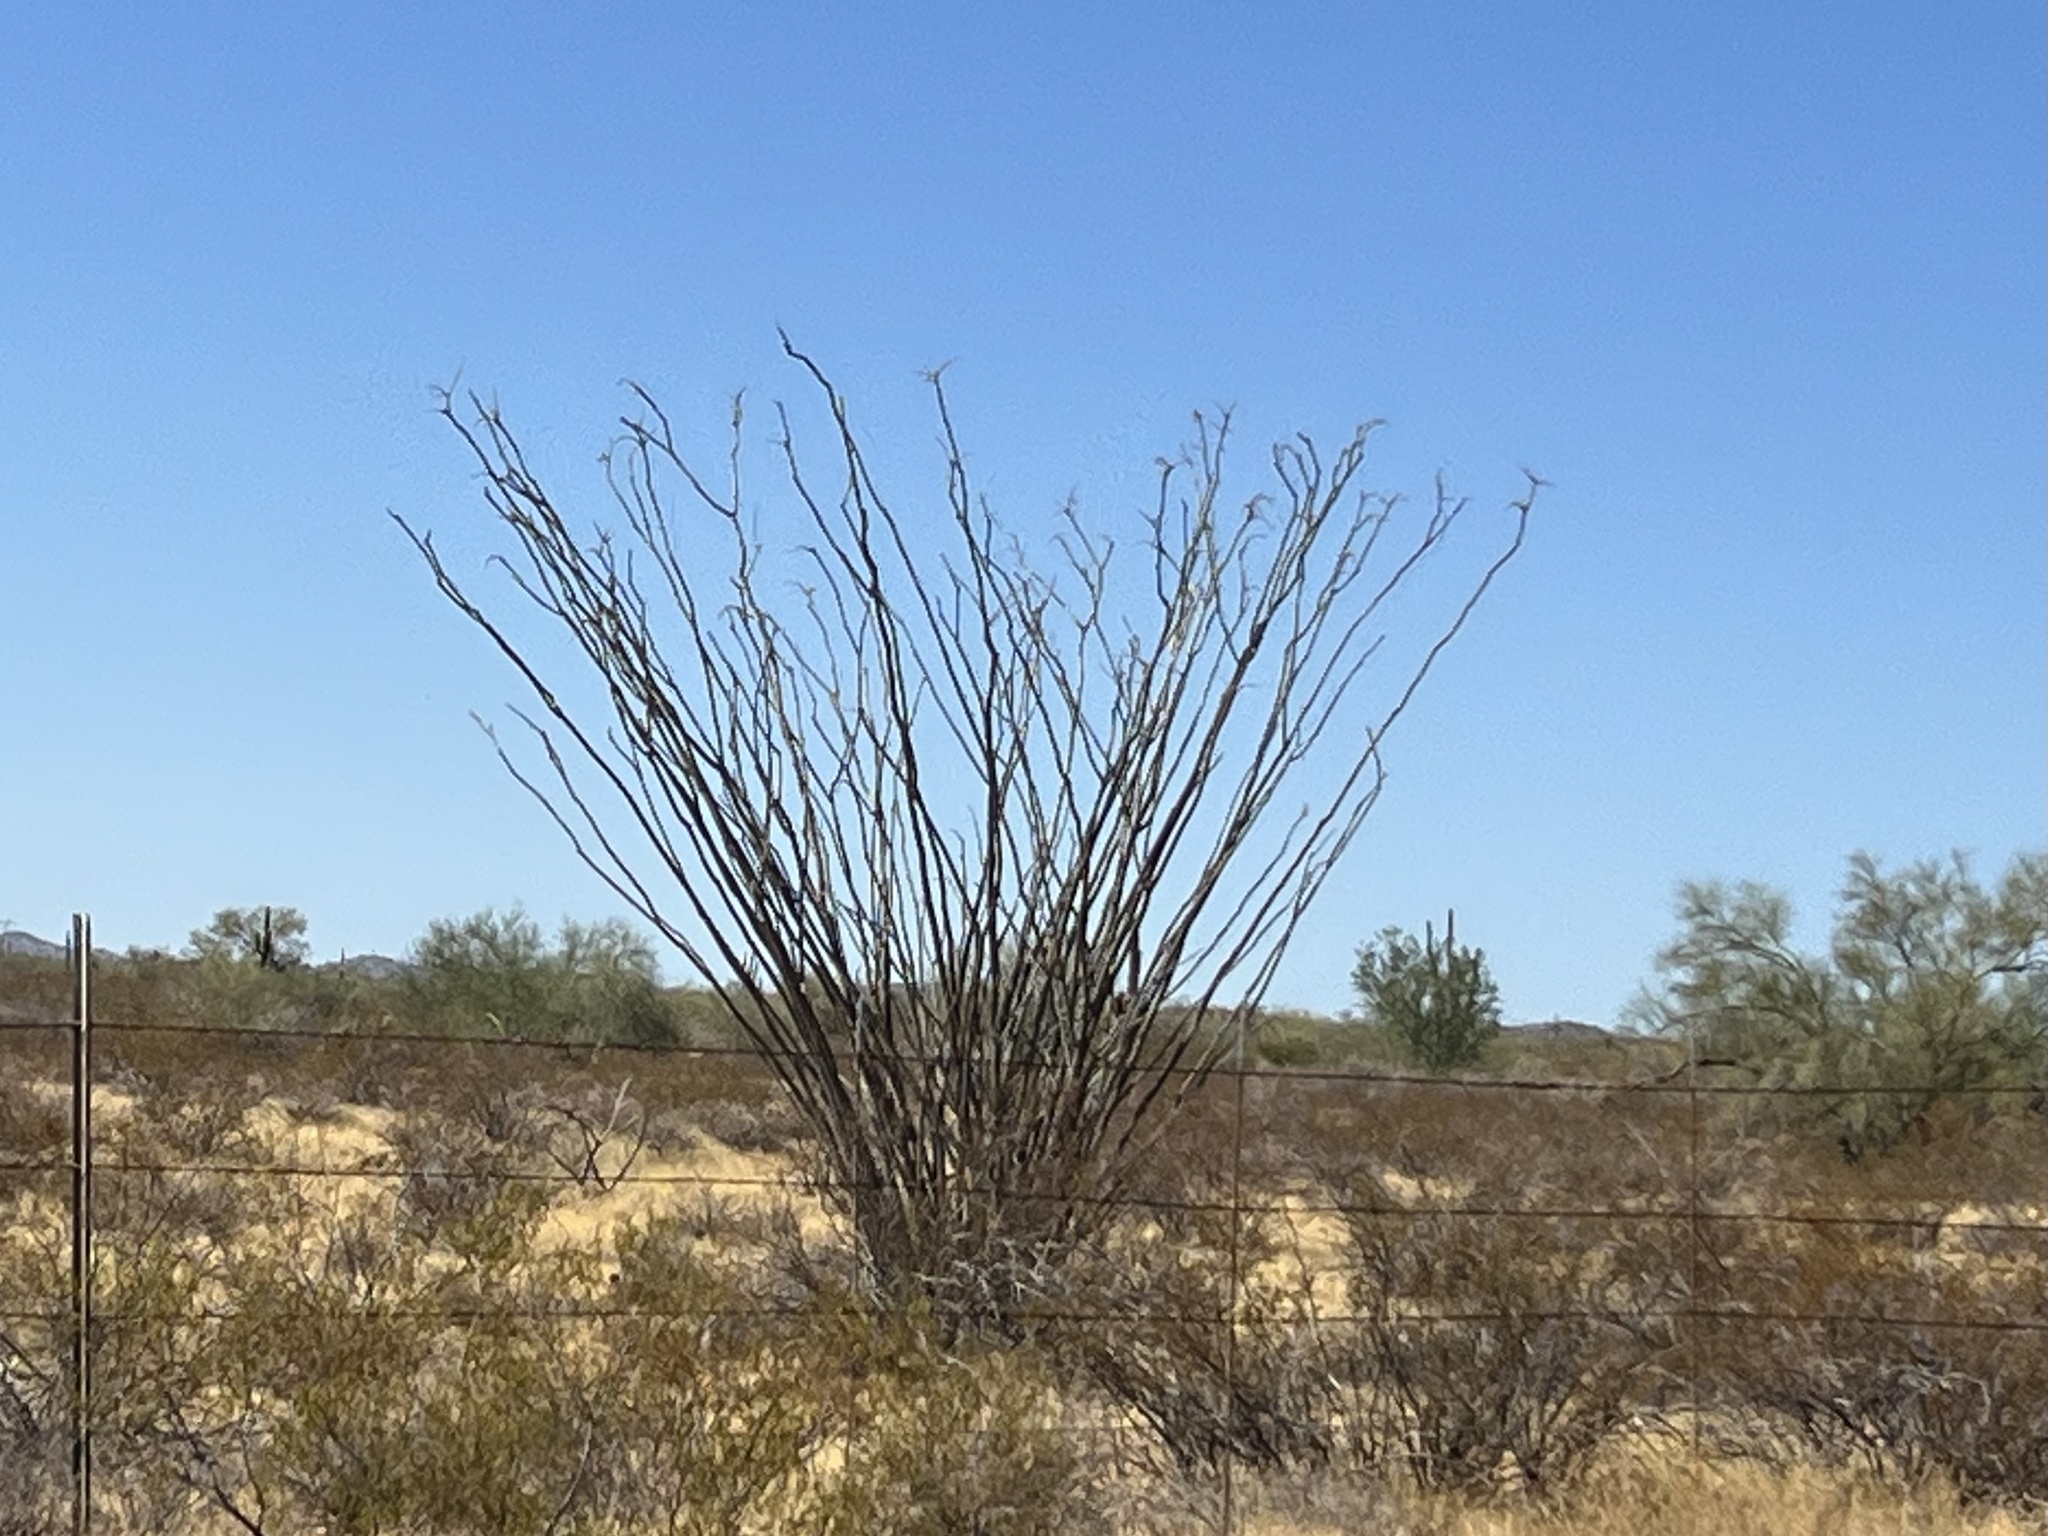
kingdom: Plantae
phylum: Tracheophyta
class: Magnoliopsida
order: Ericales
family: Fouquieriaceae
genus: Fouquieria
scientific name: Fouquieria splendens
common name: Vine-cactus
